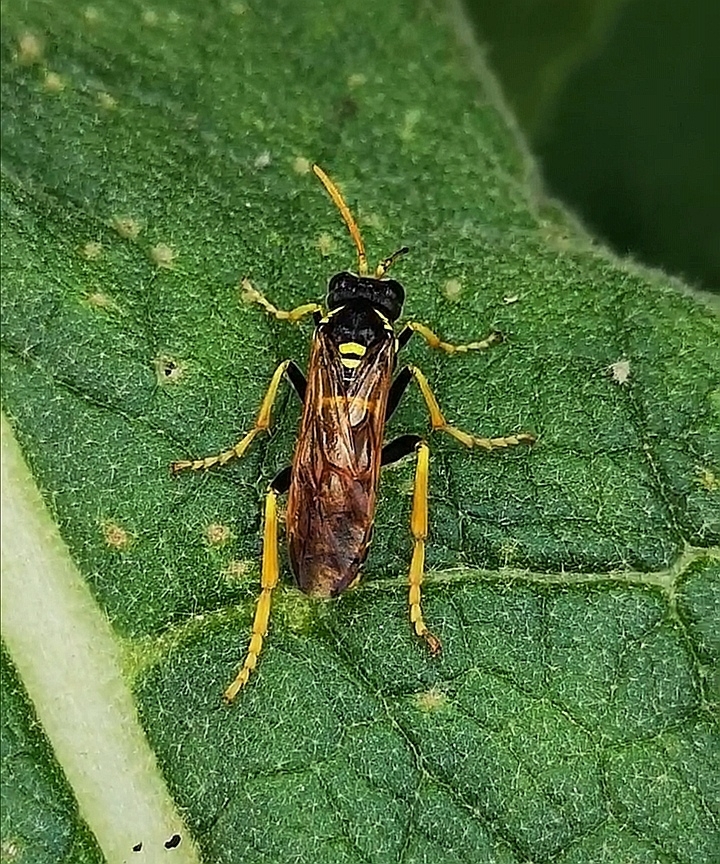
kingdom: Animalia
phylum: Arthropoda
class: Insecta
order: Hymenoptera
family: Tenthredinidae
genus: Tenthredo
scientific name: Tenthredo scrophulariae
